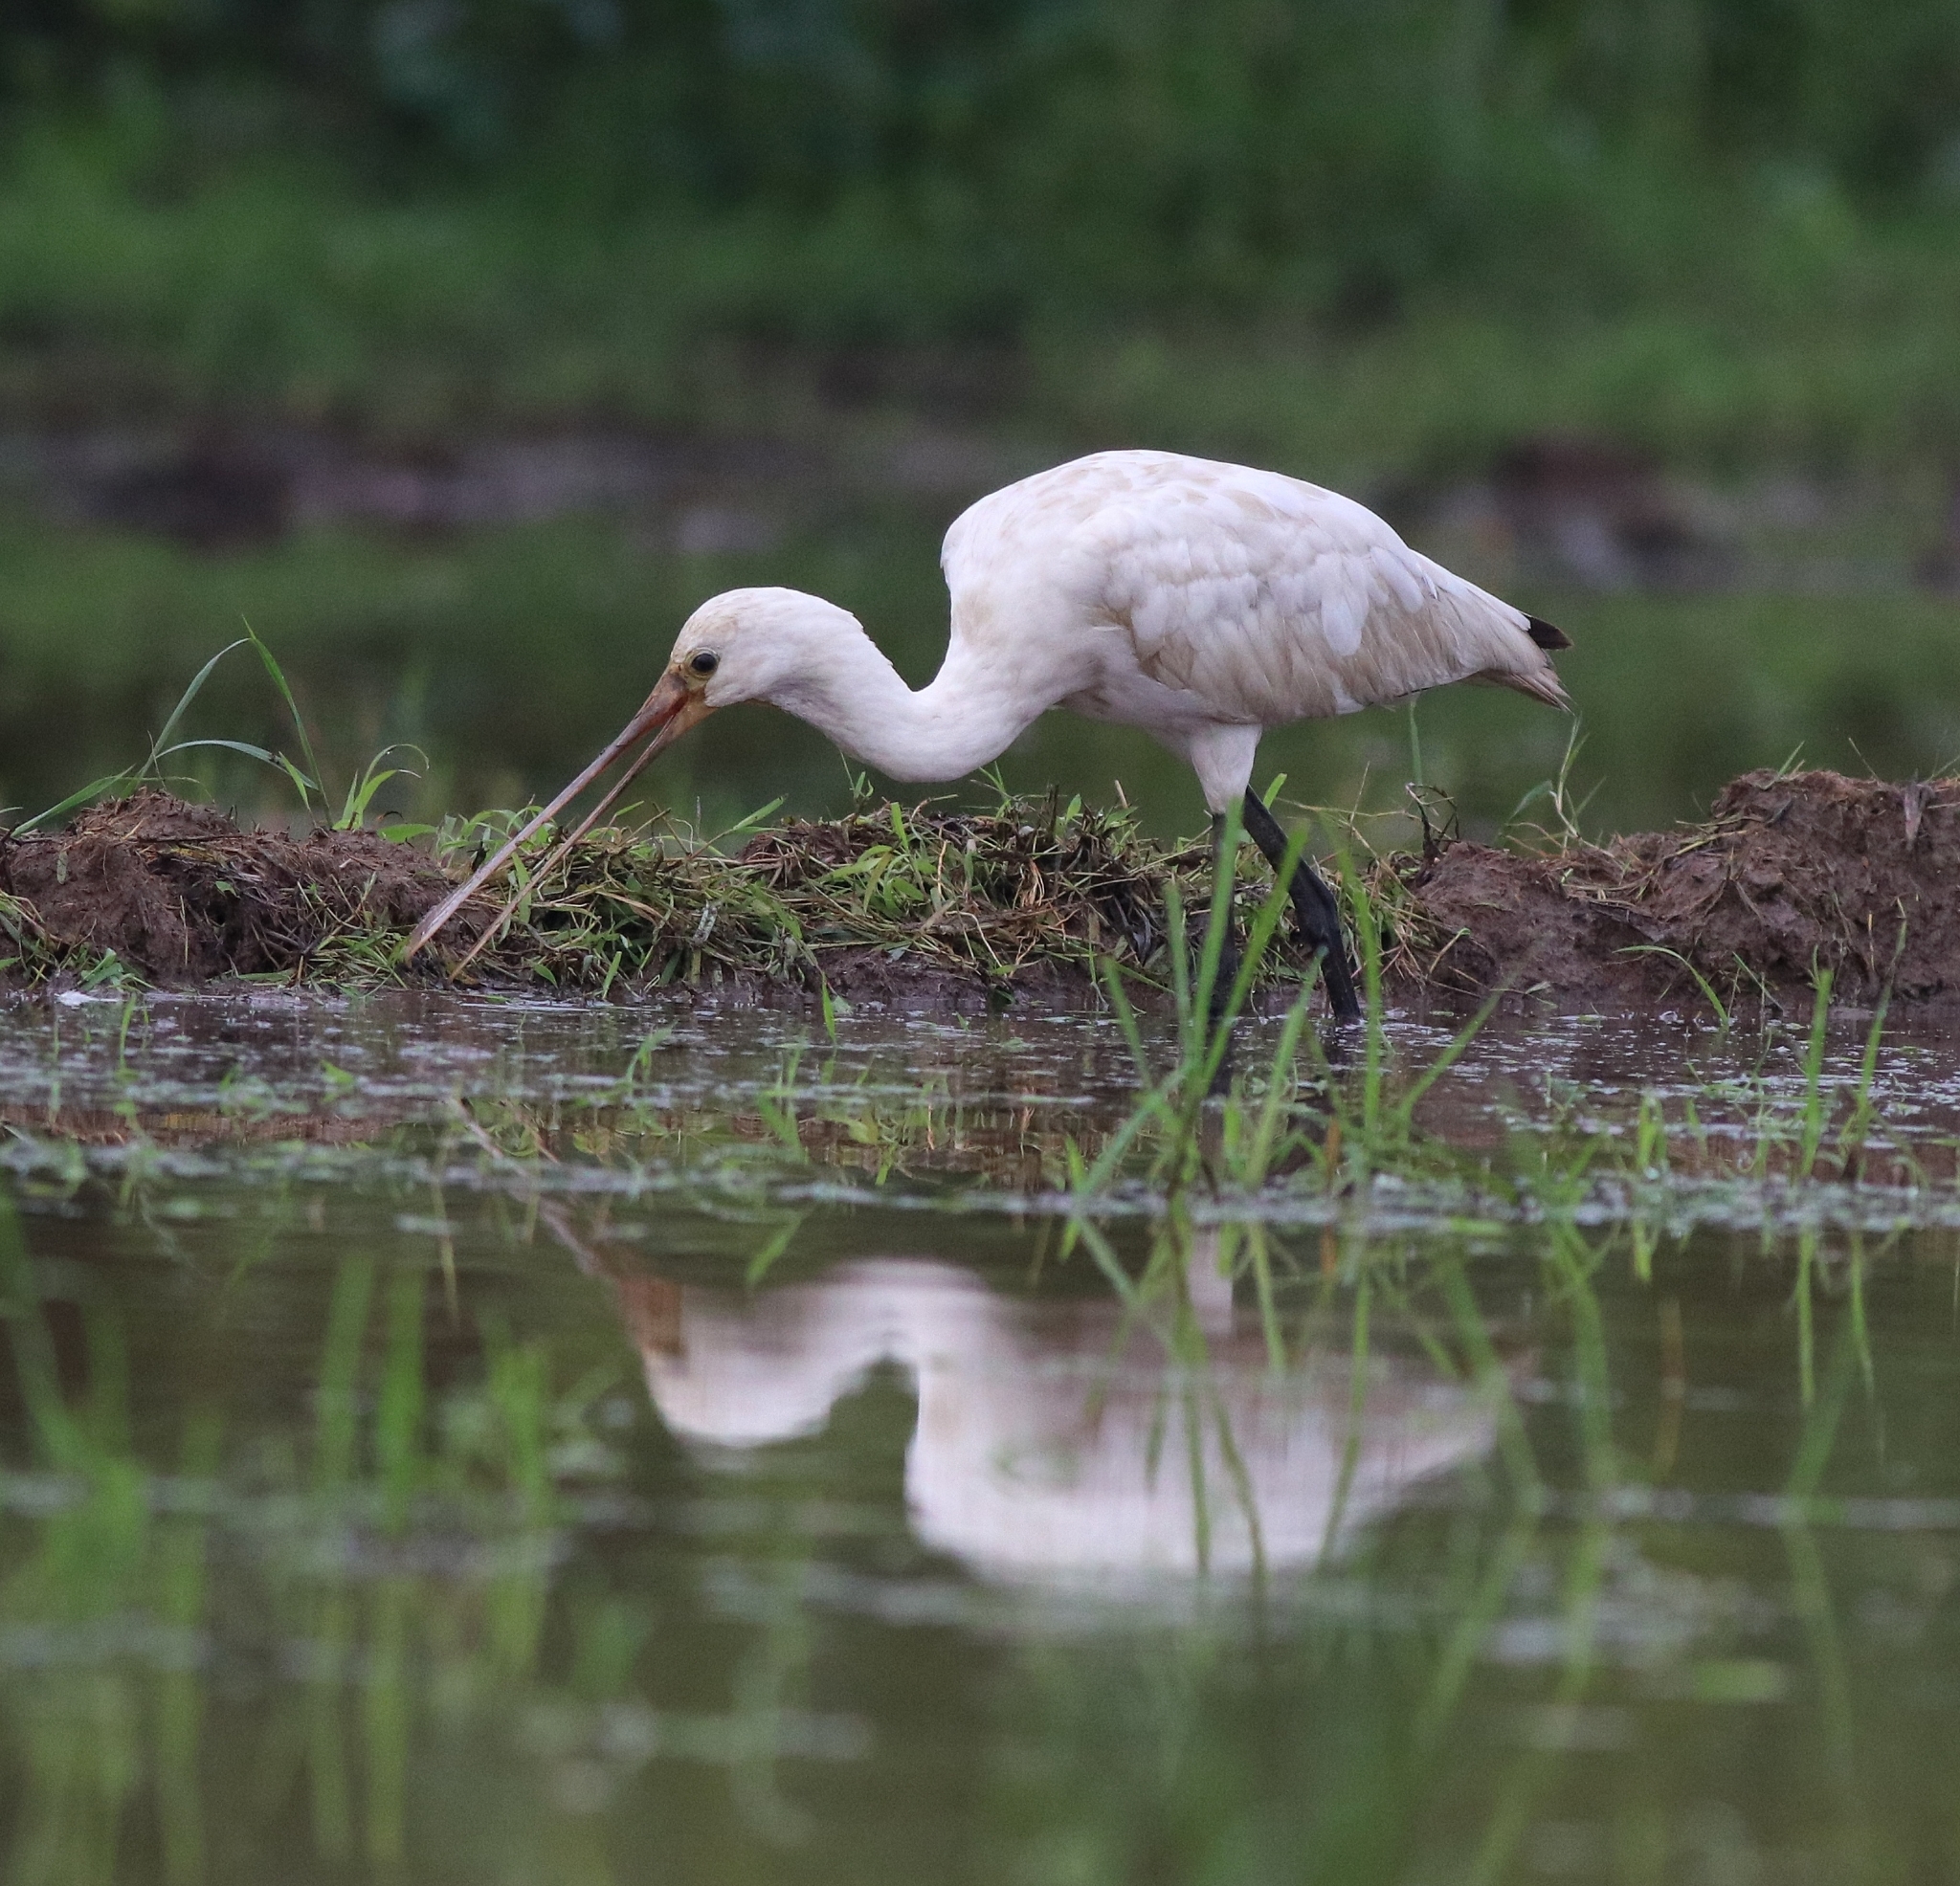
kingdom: Animalia
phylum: Chordata
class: Aves
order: Pelecaniformes
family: Threskiornithidae
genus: Platalea
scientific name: Platalea leucorodia
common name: Eurasian spoonbill
